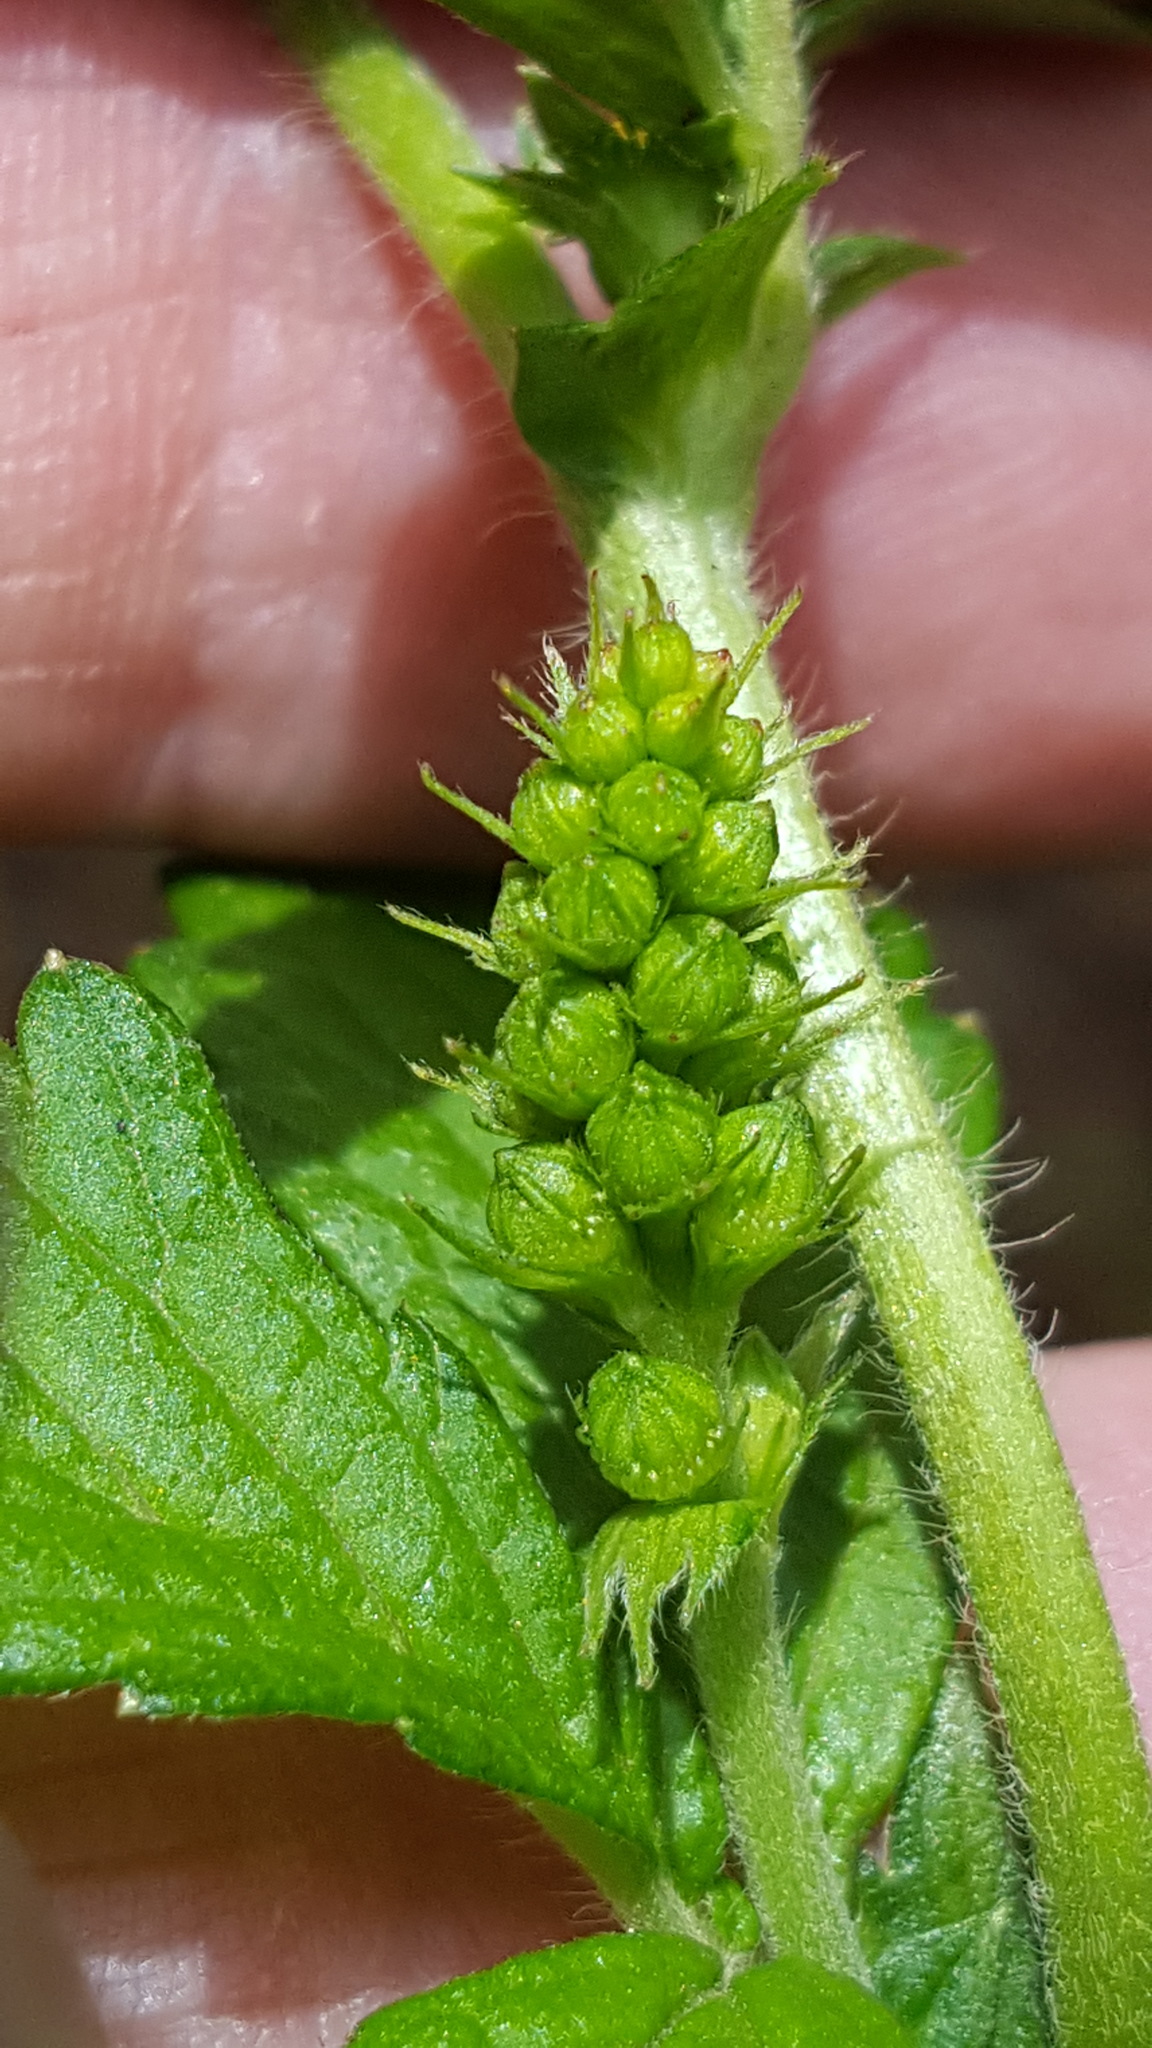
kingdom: Plantae
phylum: Tracheophyta
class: Magnoliopsida
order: Rosales
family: Rosaceae
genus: Agrimonia
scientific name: Agrimonia striata
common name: Britton's agrimony
